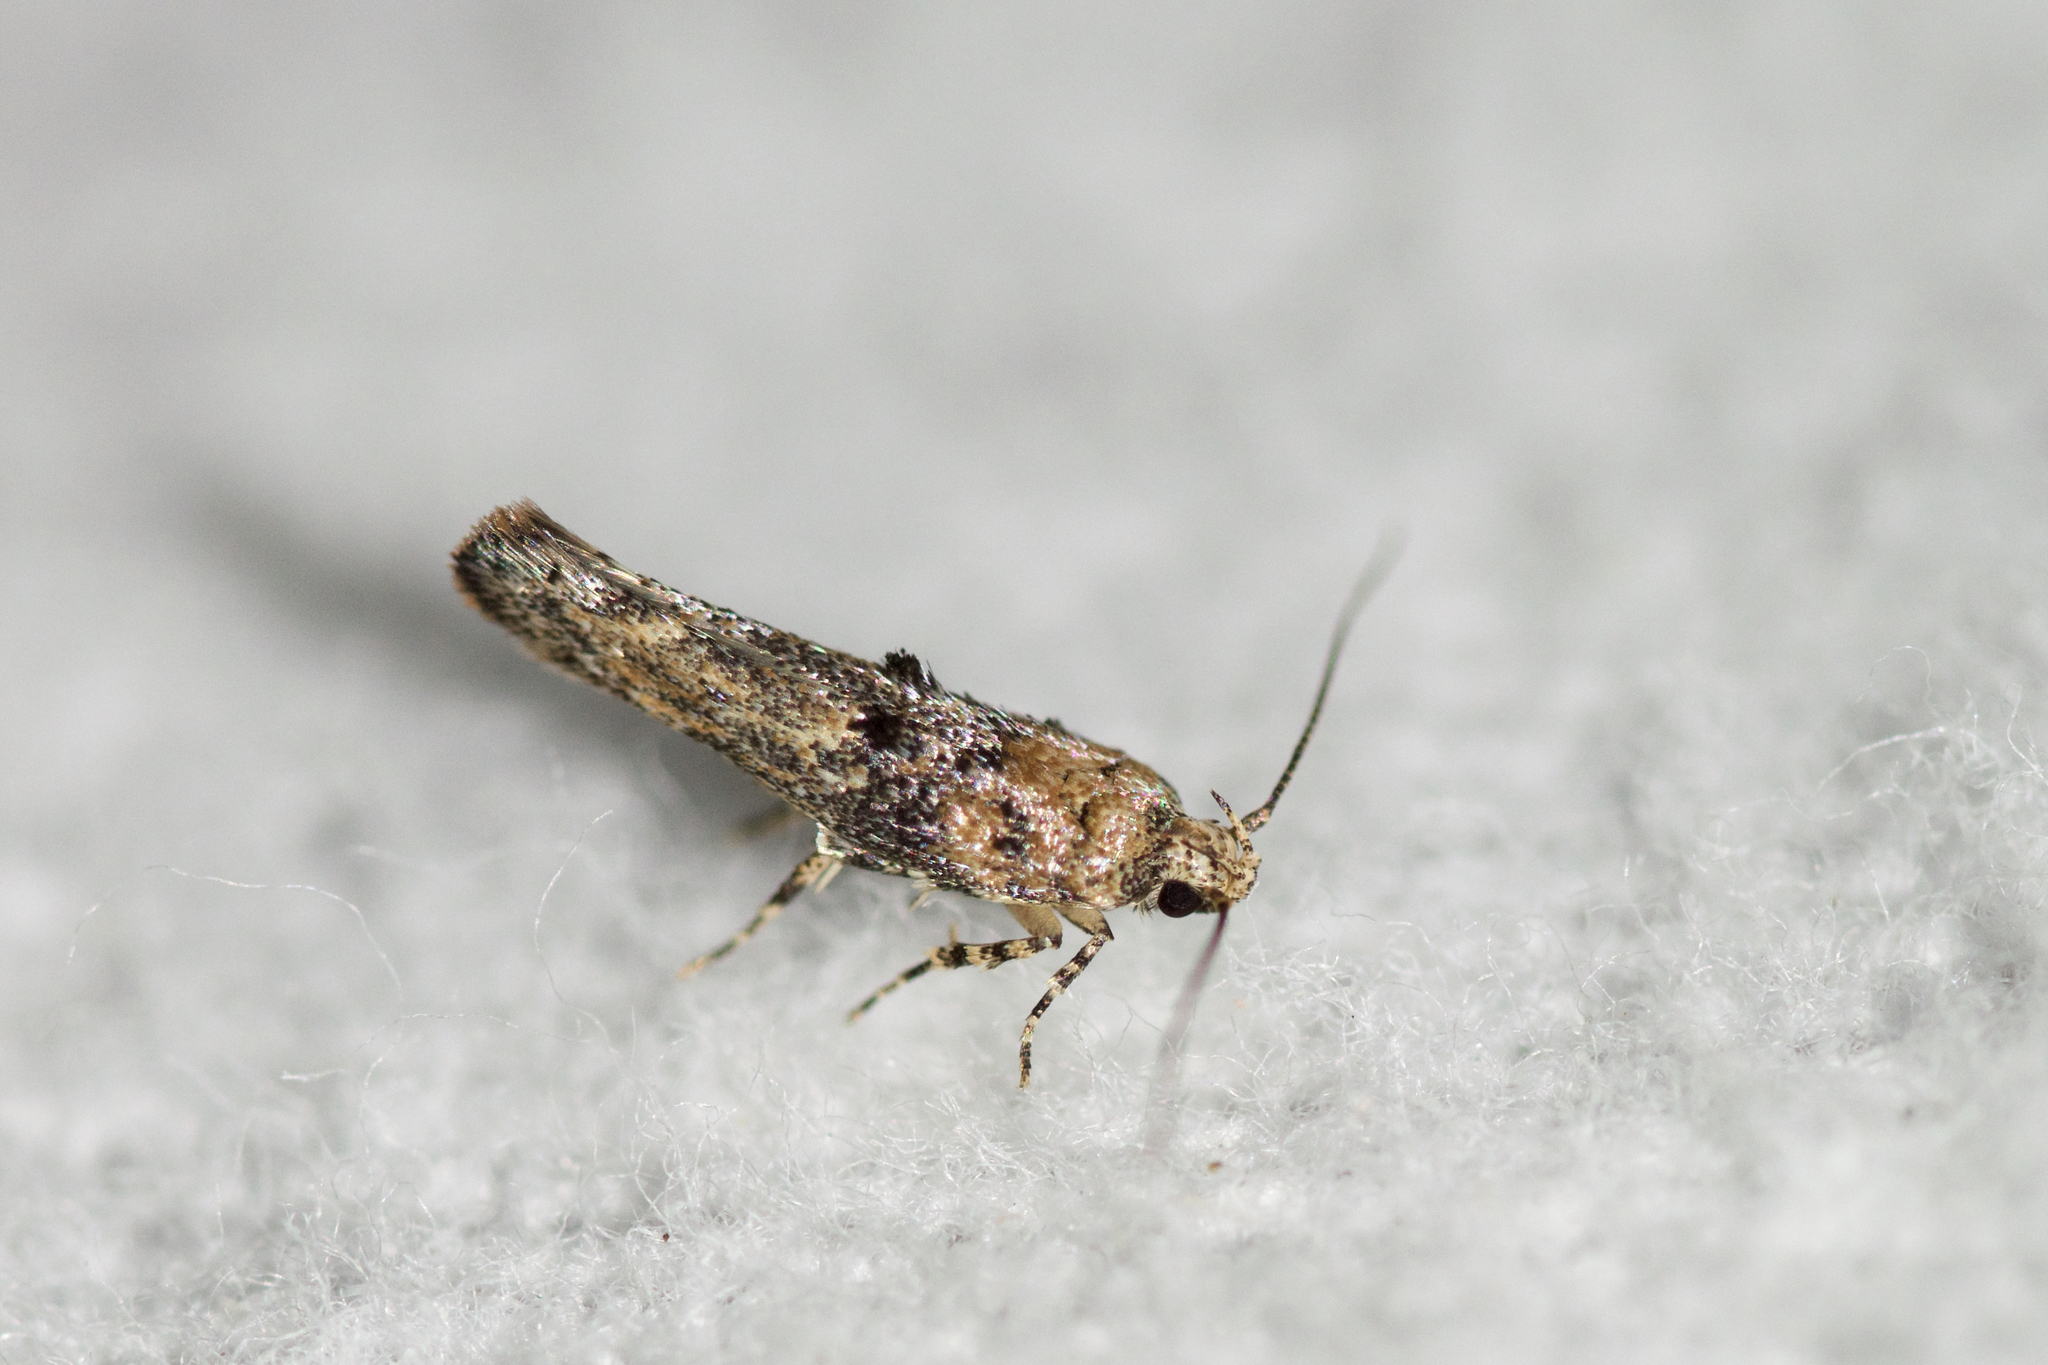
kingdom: Animalia
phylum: Arthropoda
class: Insecta
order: Lepidoptera
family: Gelechiidae
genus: Agnippe
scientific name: Agnippe biscolorella
